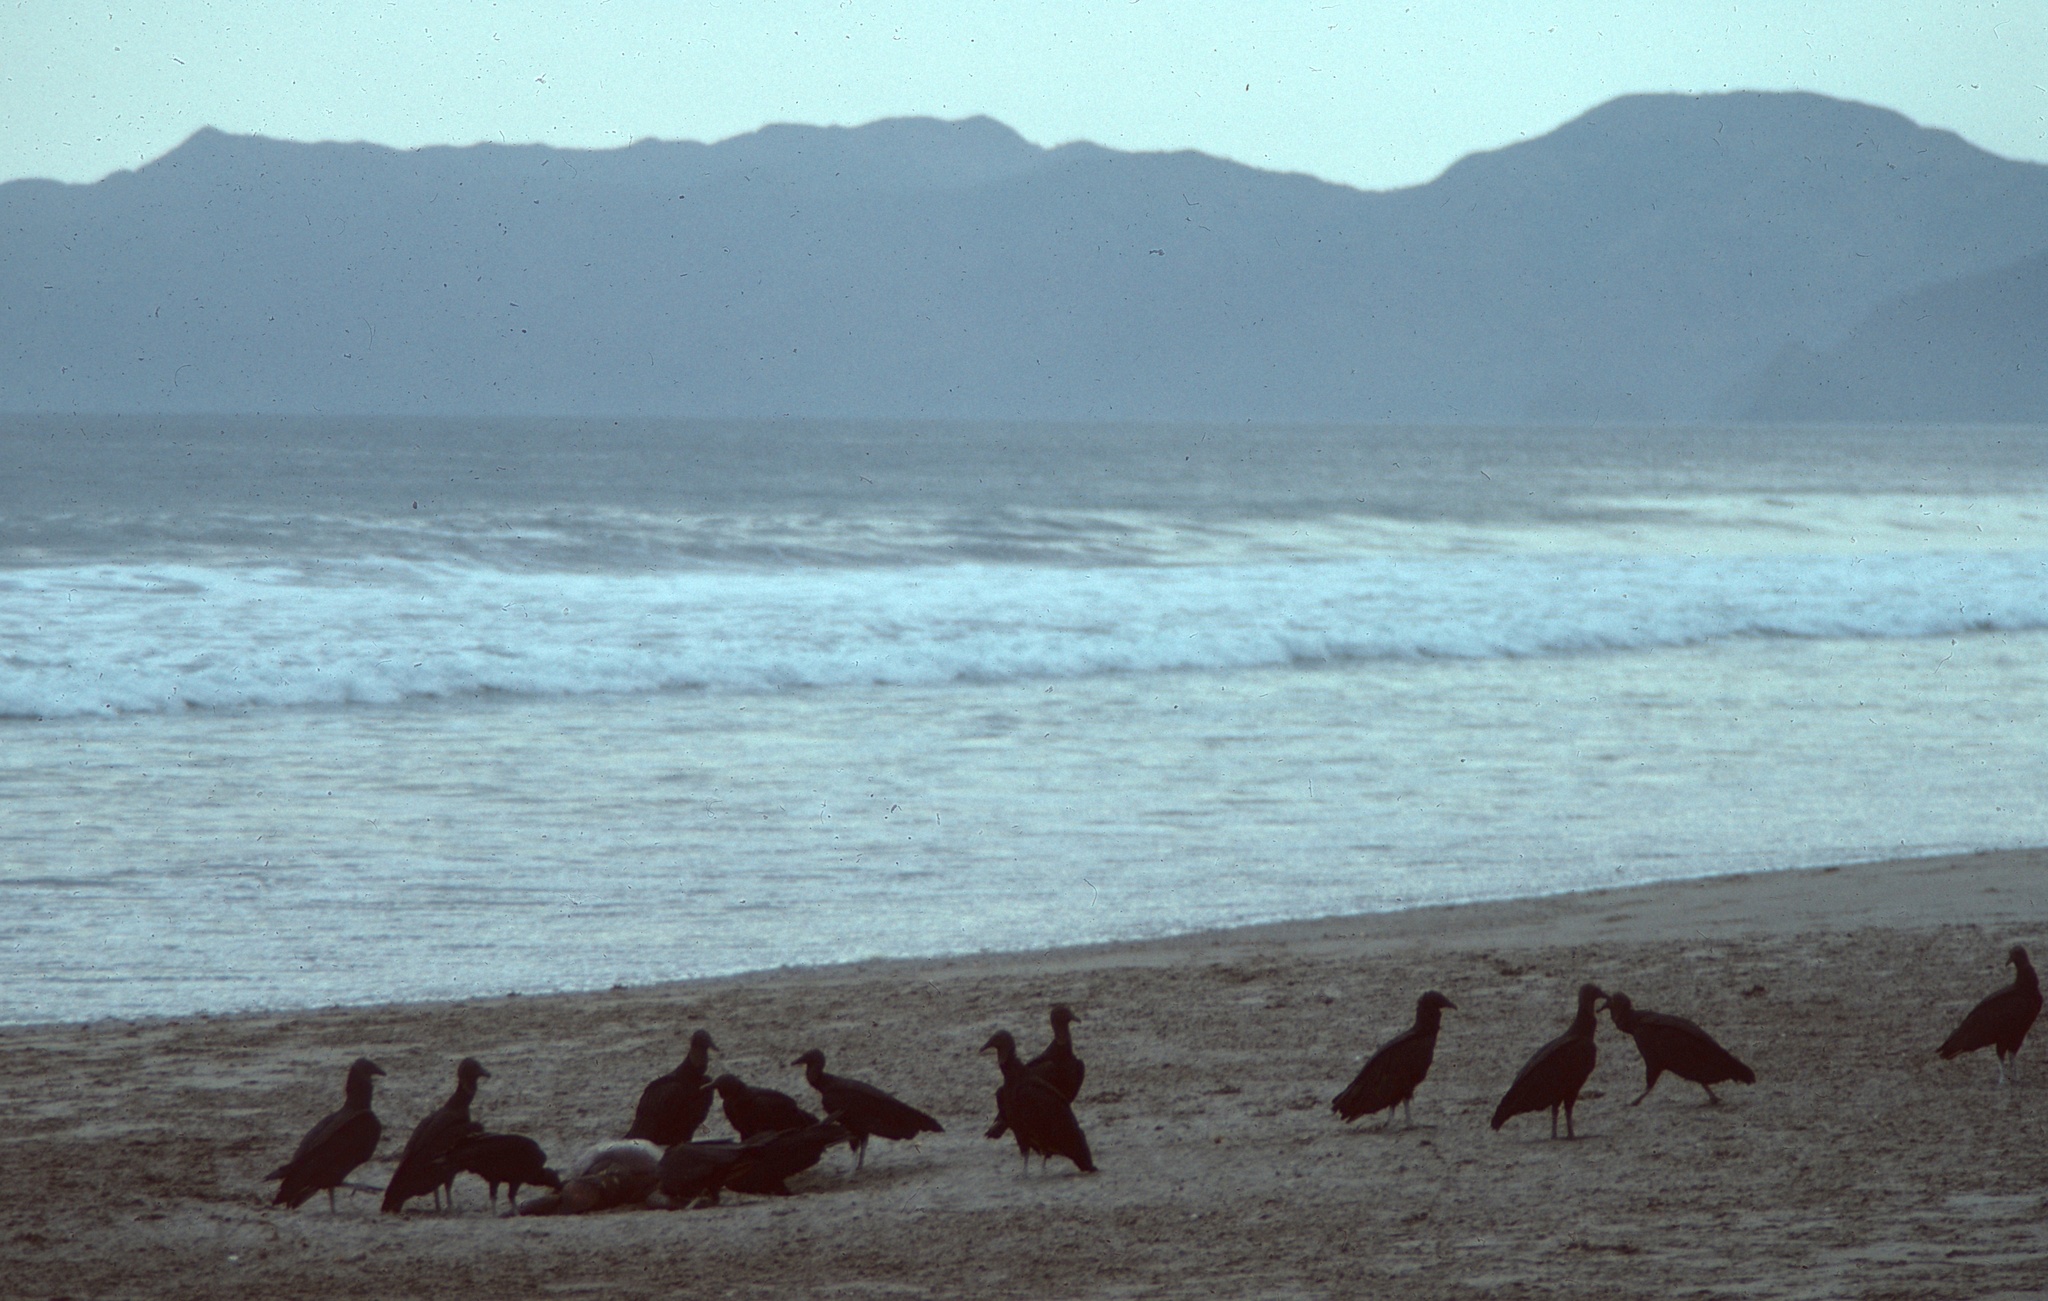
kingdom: Animalia
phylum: Chordata
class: Aves
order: Accipitriformes
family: Cathartidae
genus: Coragyps
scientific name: Coragyps atratus
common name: Black vulture
